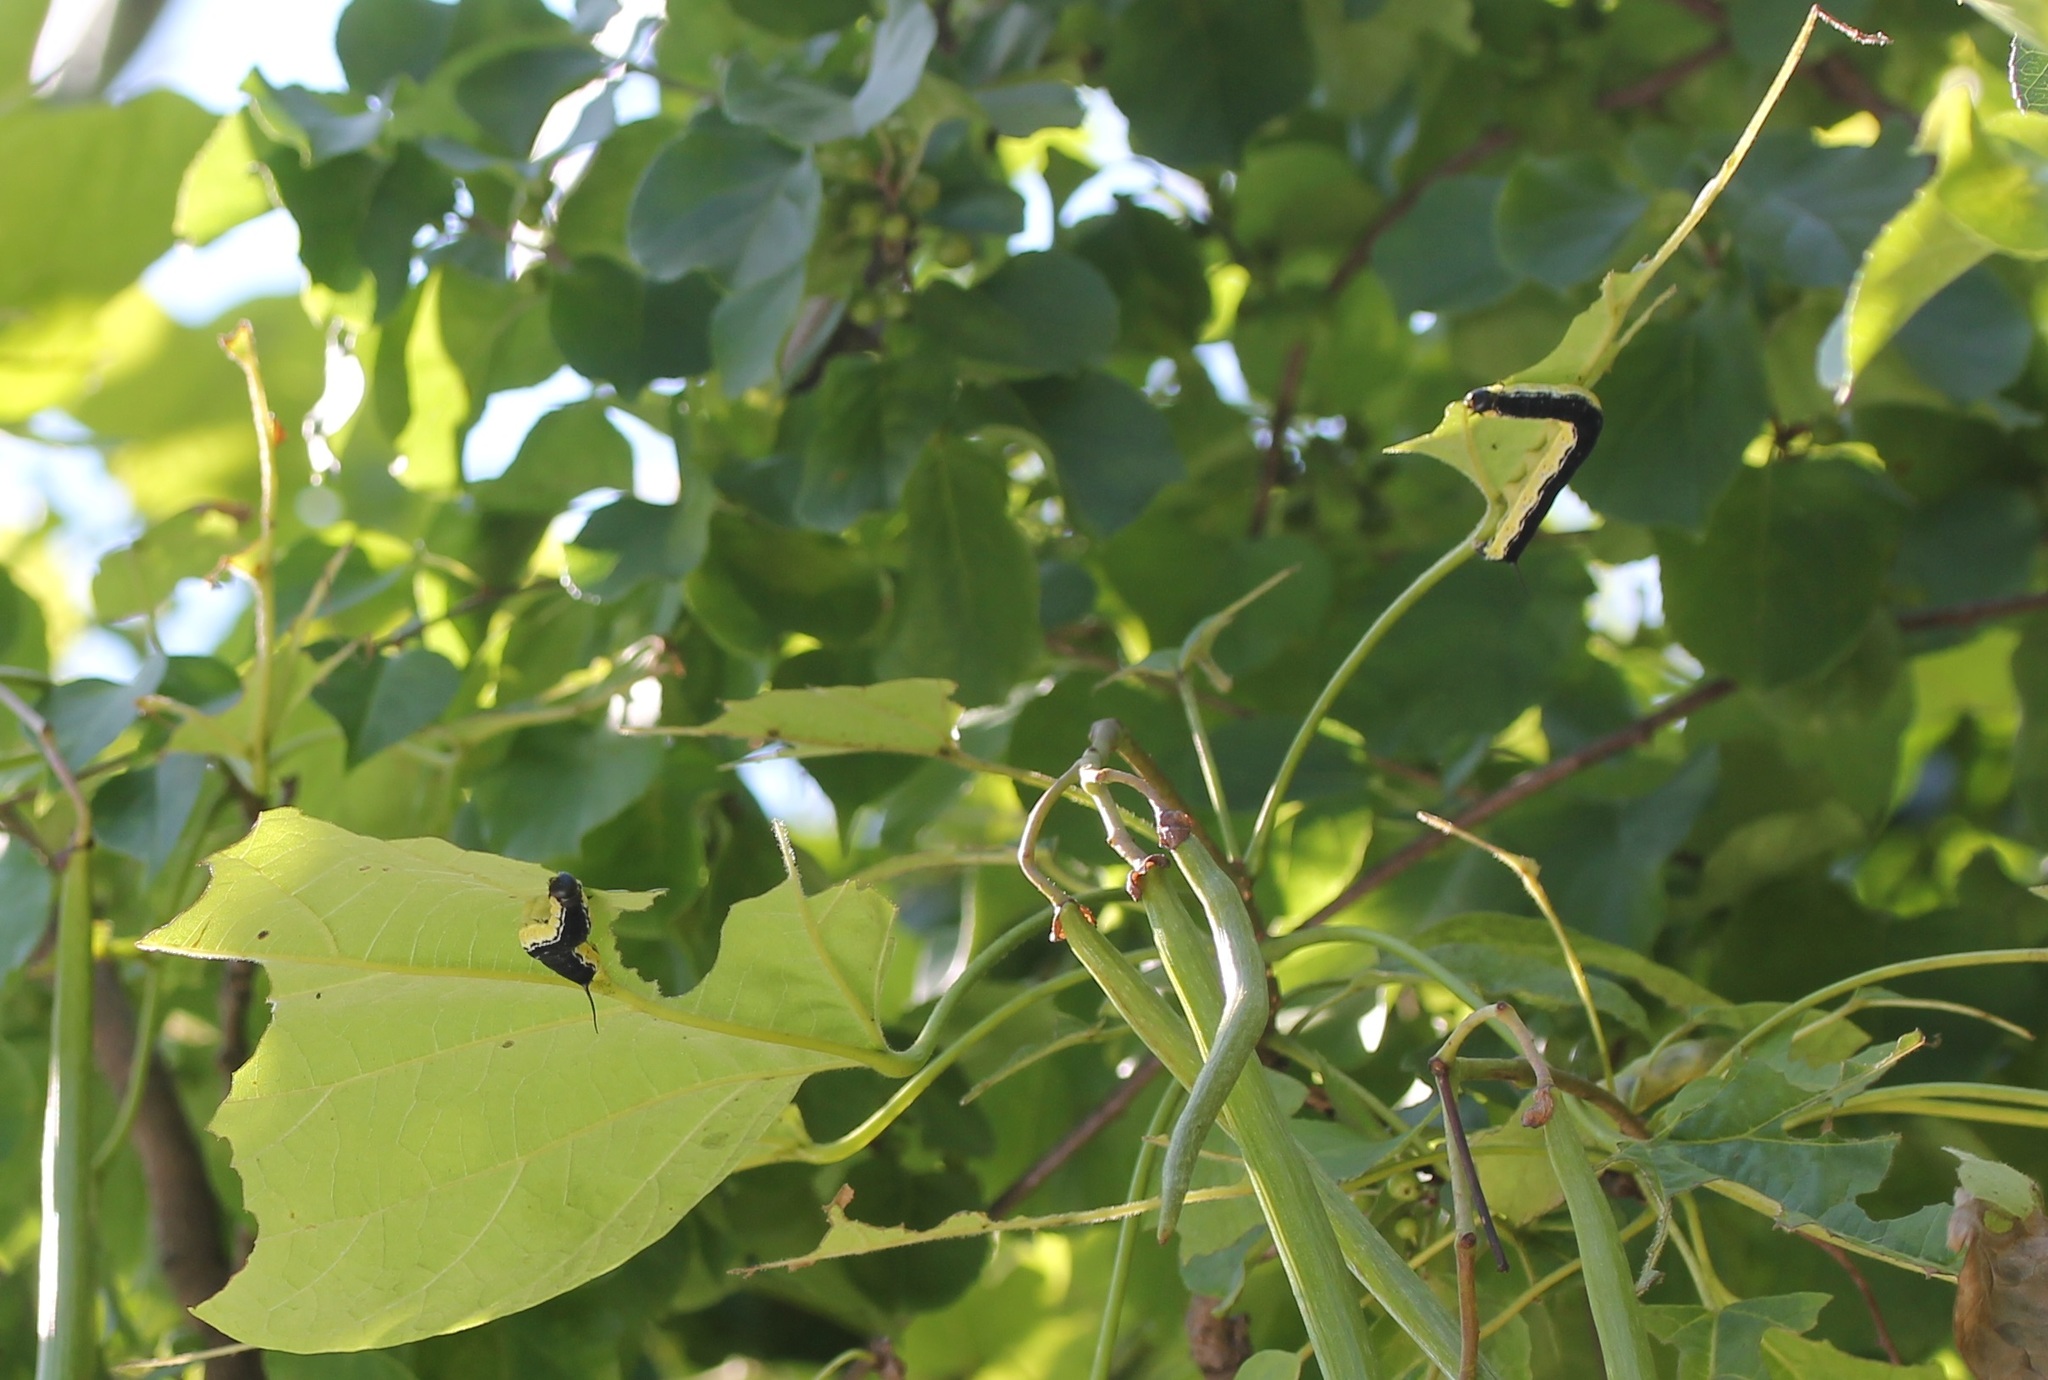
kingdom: Animalia
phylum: Arthropoda
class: Insecta
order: Lepidoptera
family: Sphingidae
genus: Ceratomia
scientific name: Ceratomia catalpae
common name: Catalpa hornworm
